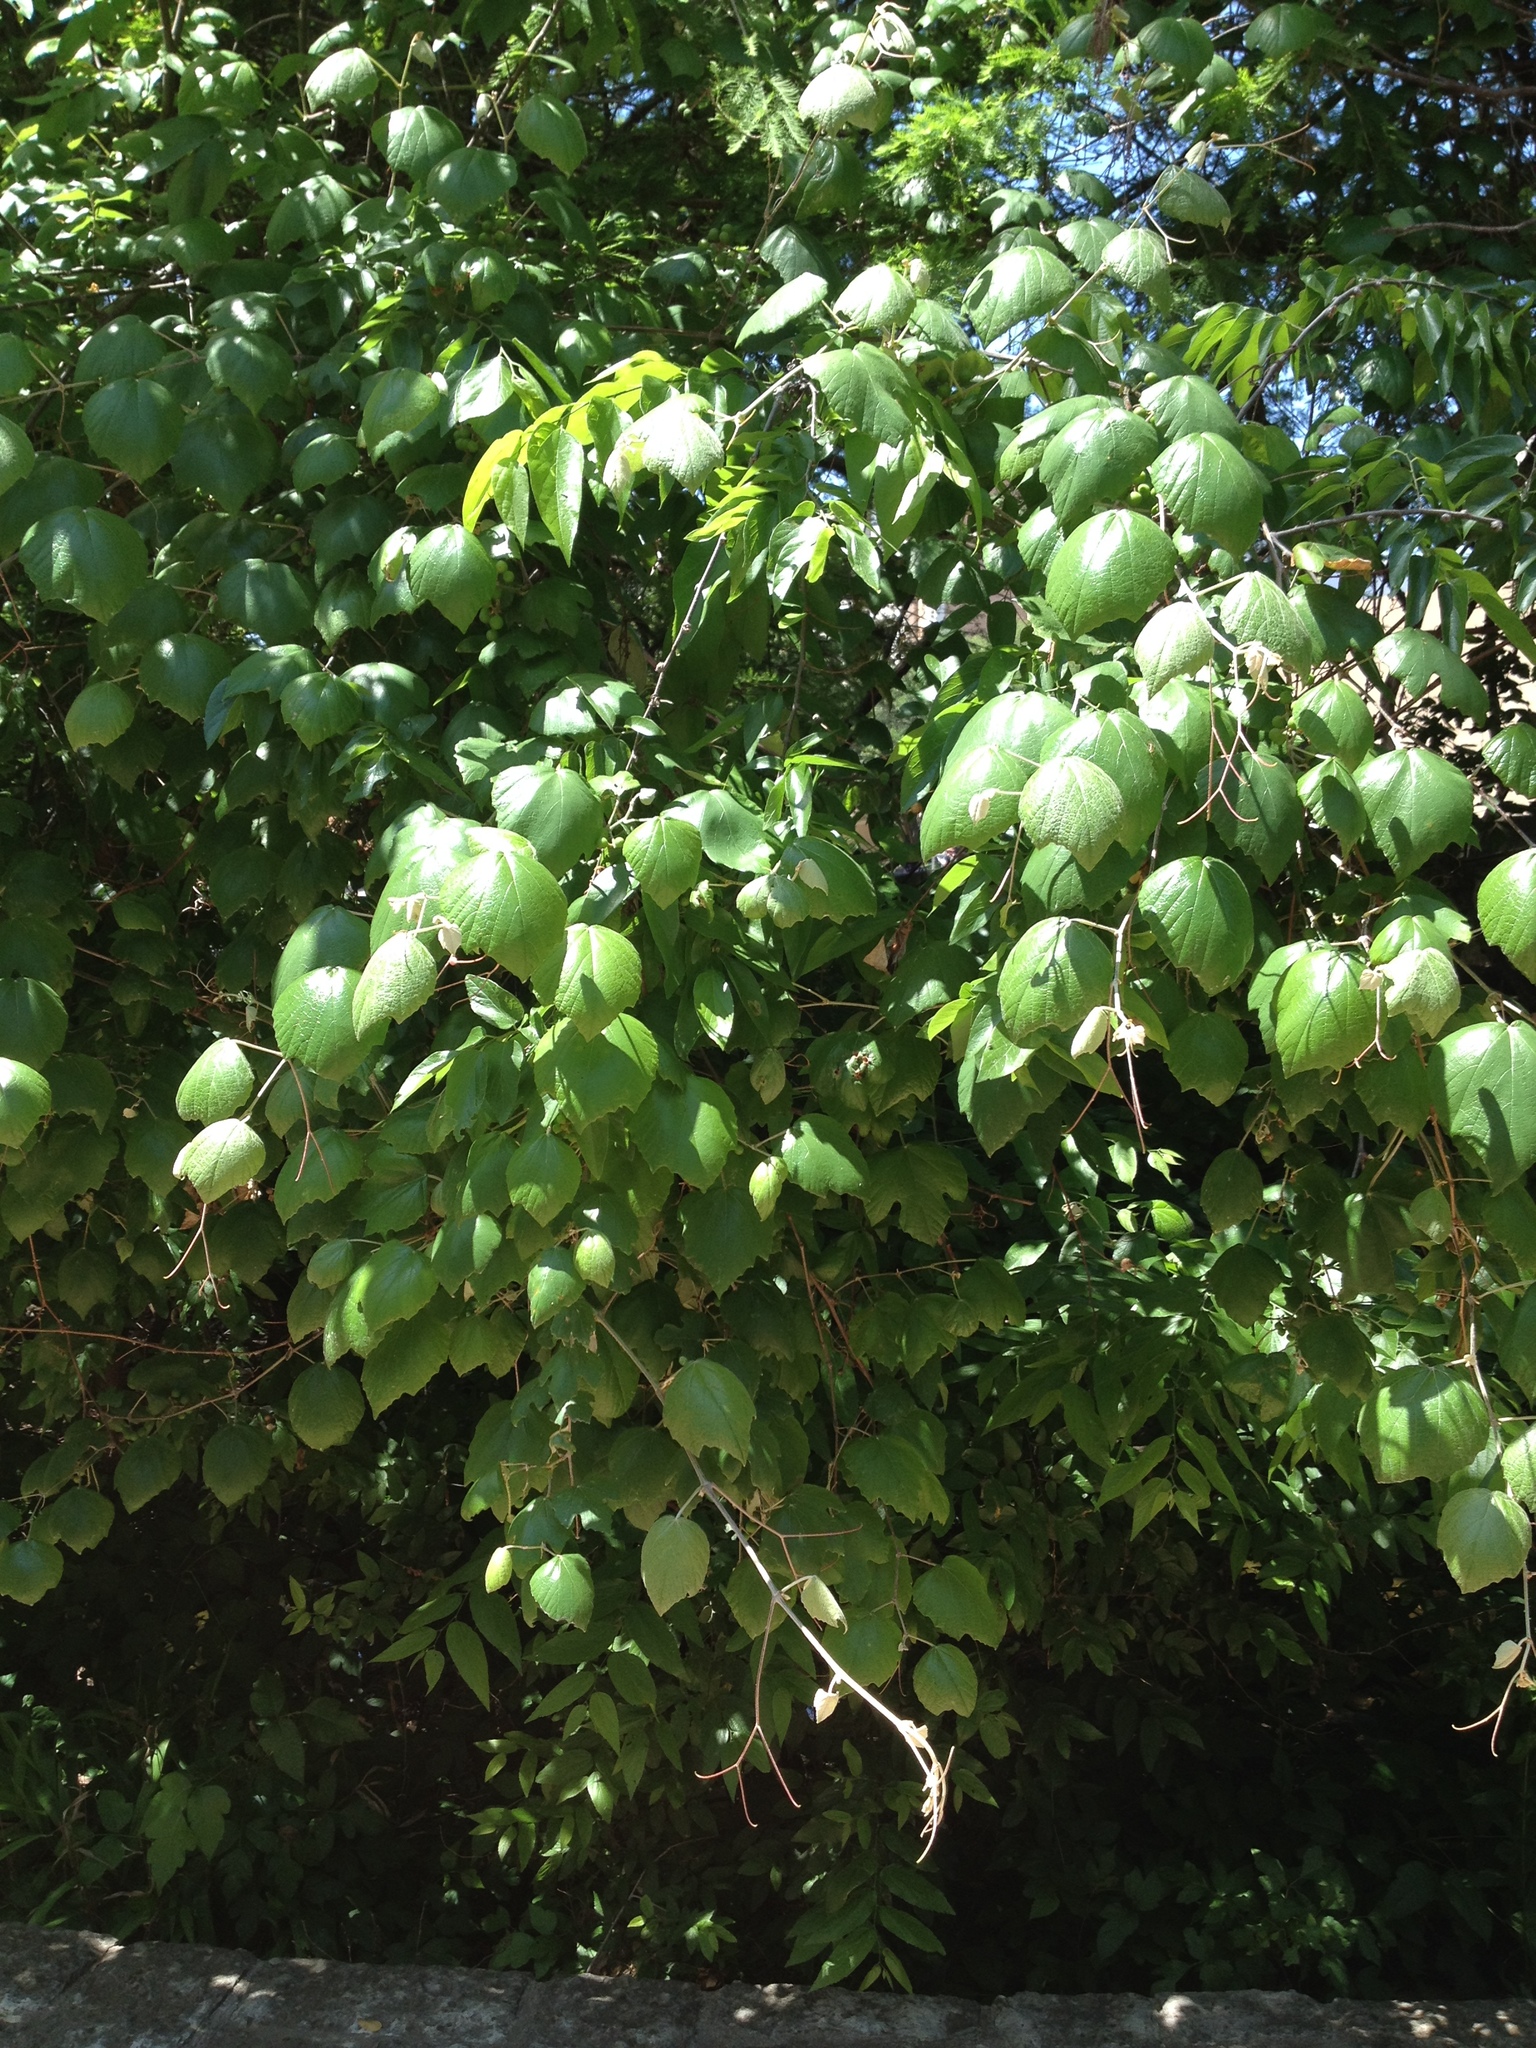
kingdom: Plantae
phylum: Tracheophyta
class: Magnoliopsida
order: Vitales
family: Vitaceae
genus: Vitis
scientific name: Vitis mustangensis
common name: Mustang grape
